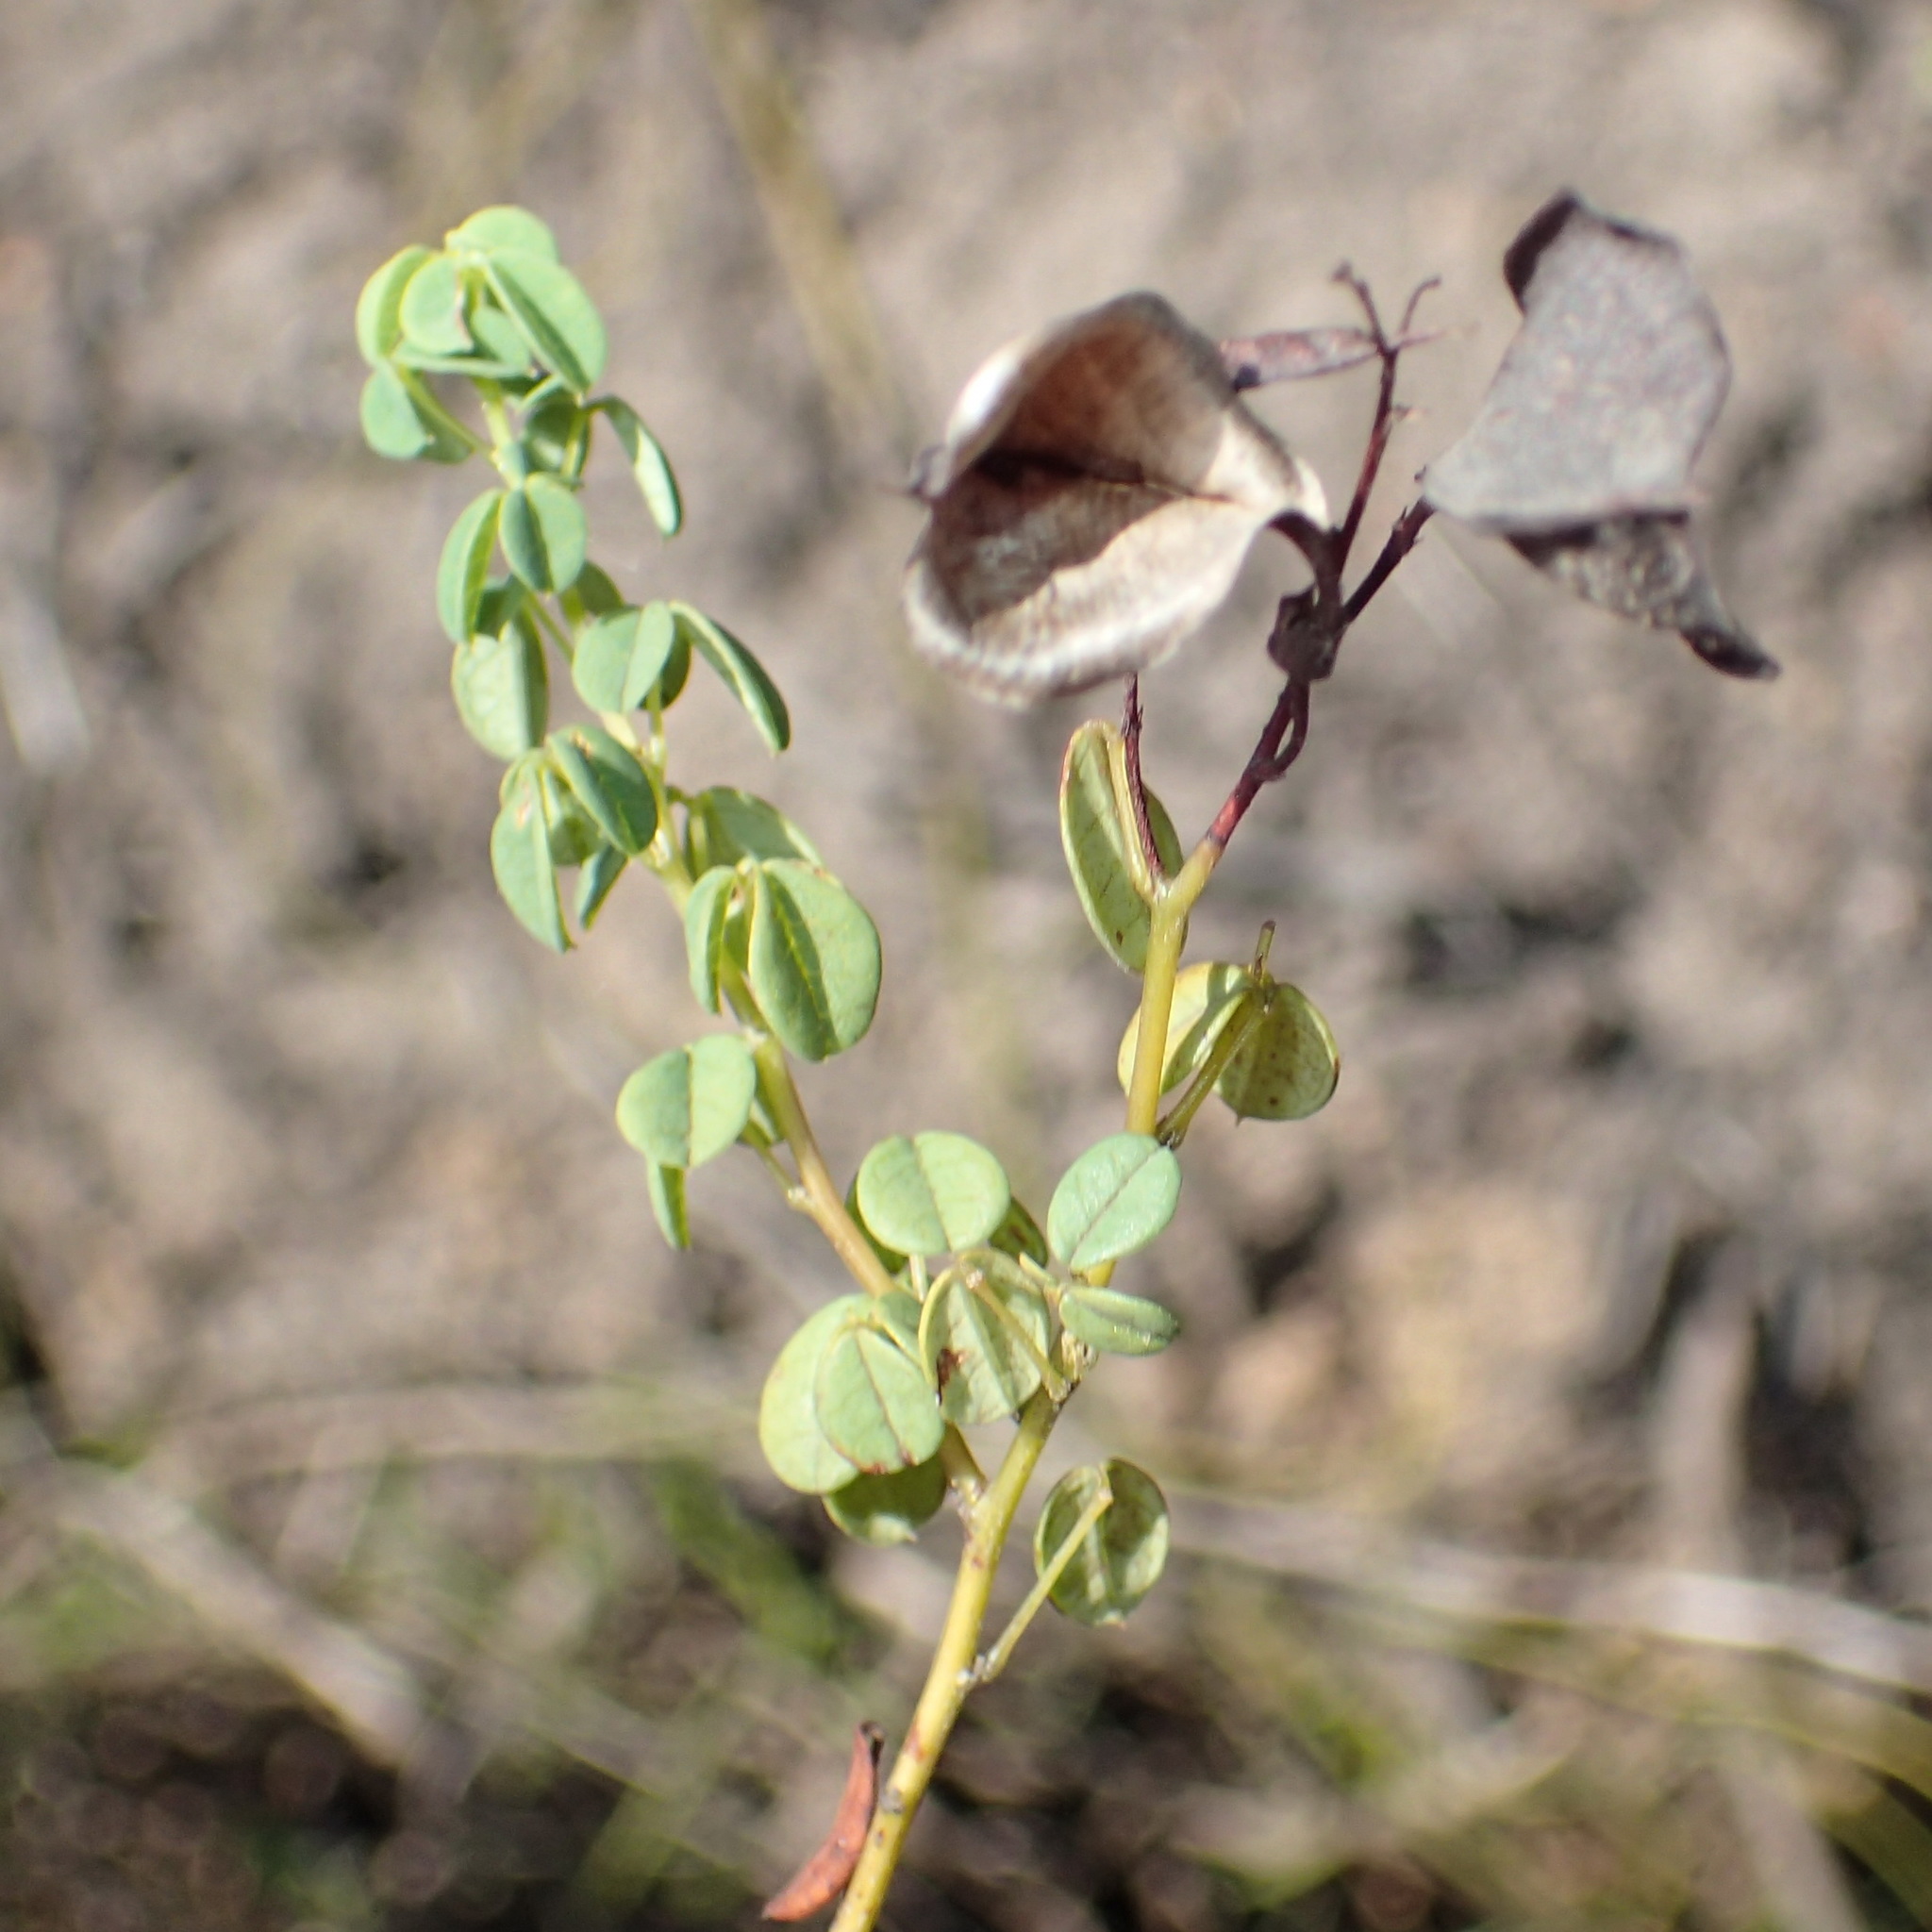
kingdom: Plantae
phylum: Tracheophyta
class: Magnoliopsida
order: Fabales
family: Fabaceae
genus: Hypocalyptus
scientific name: Hypocalyptus oxalidifolius
